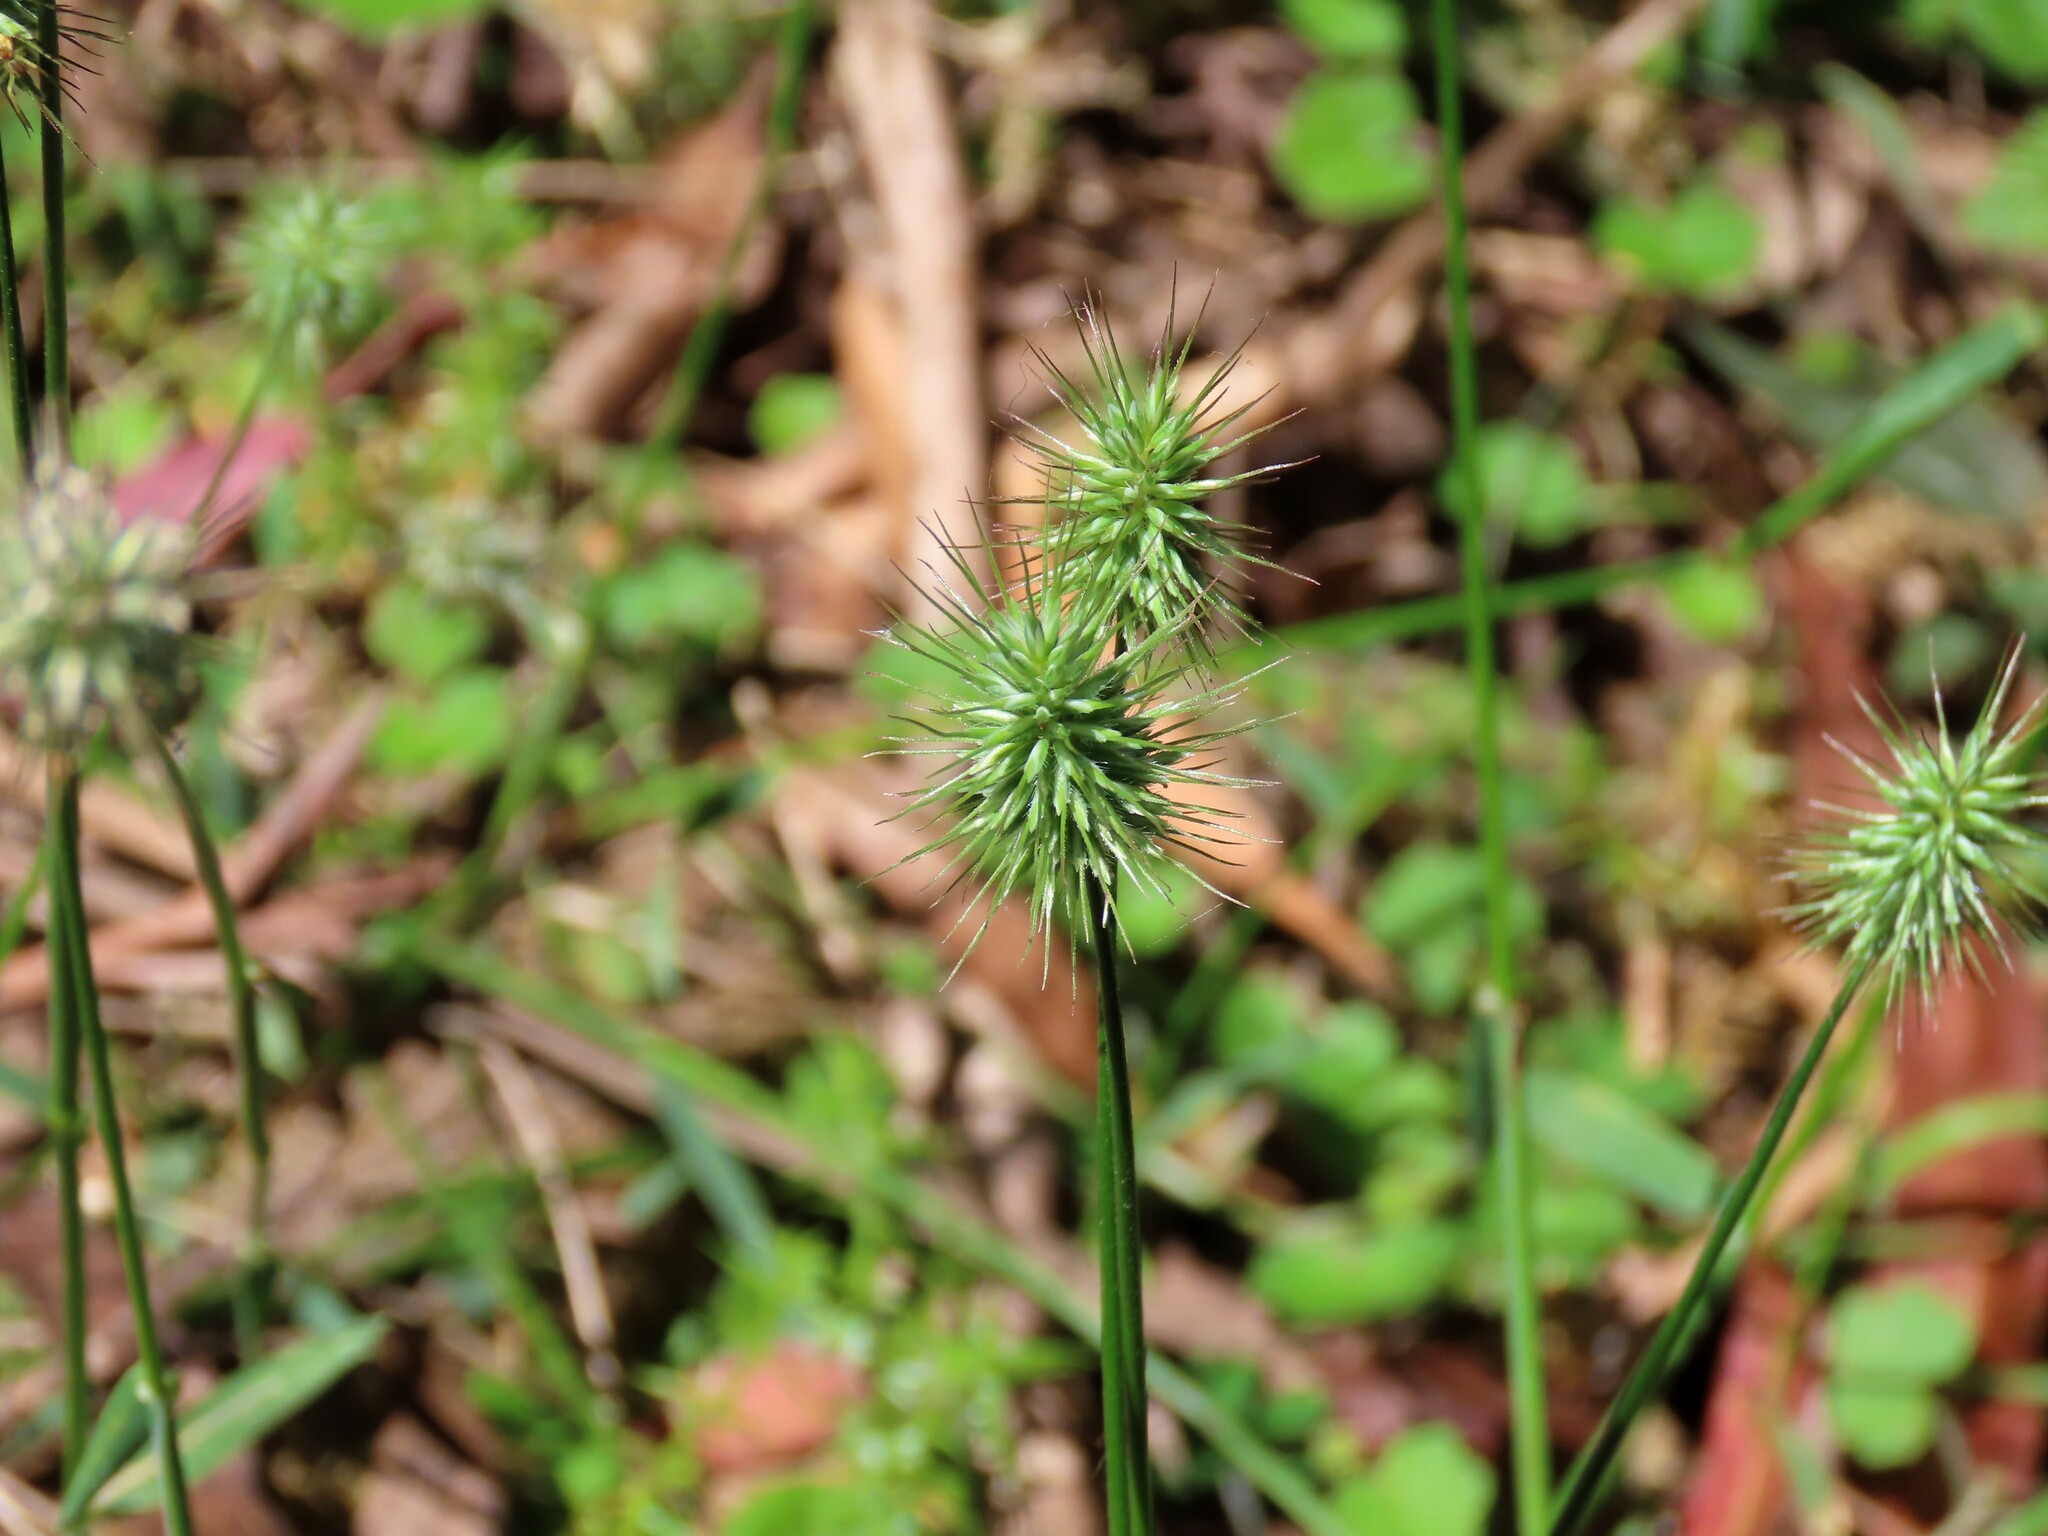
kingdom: Plantae
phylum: Tracheophyta
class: Liliopsida
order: Poales
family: Poaceae
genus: Echinopogon
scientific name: Echinopogon ovatus
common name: Hedgehog-grass
